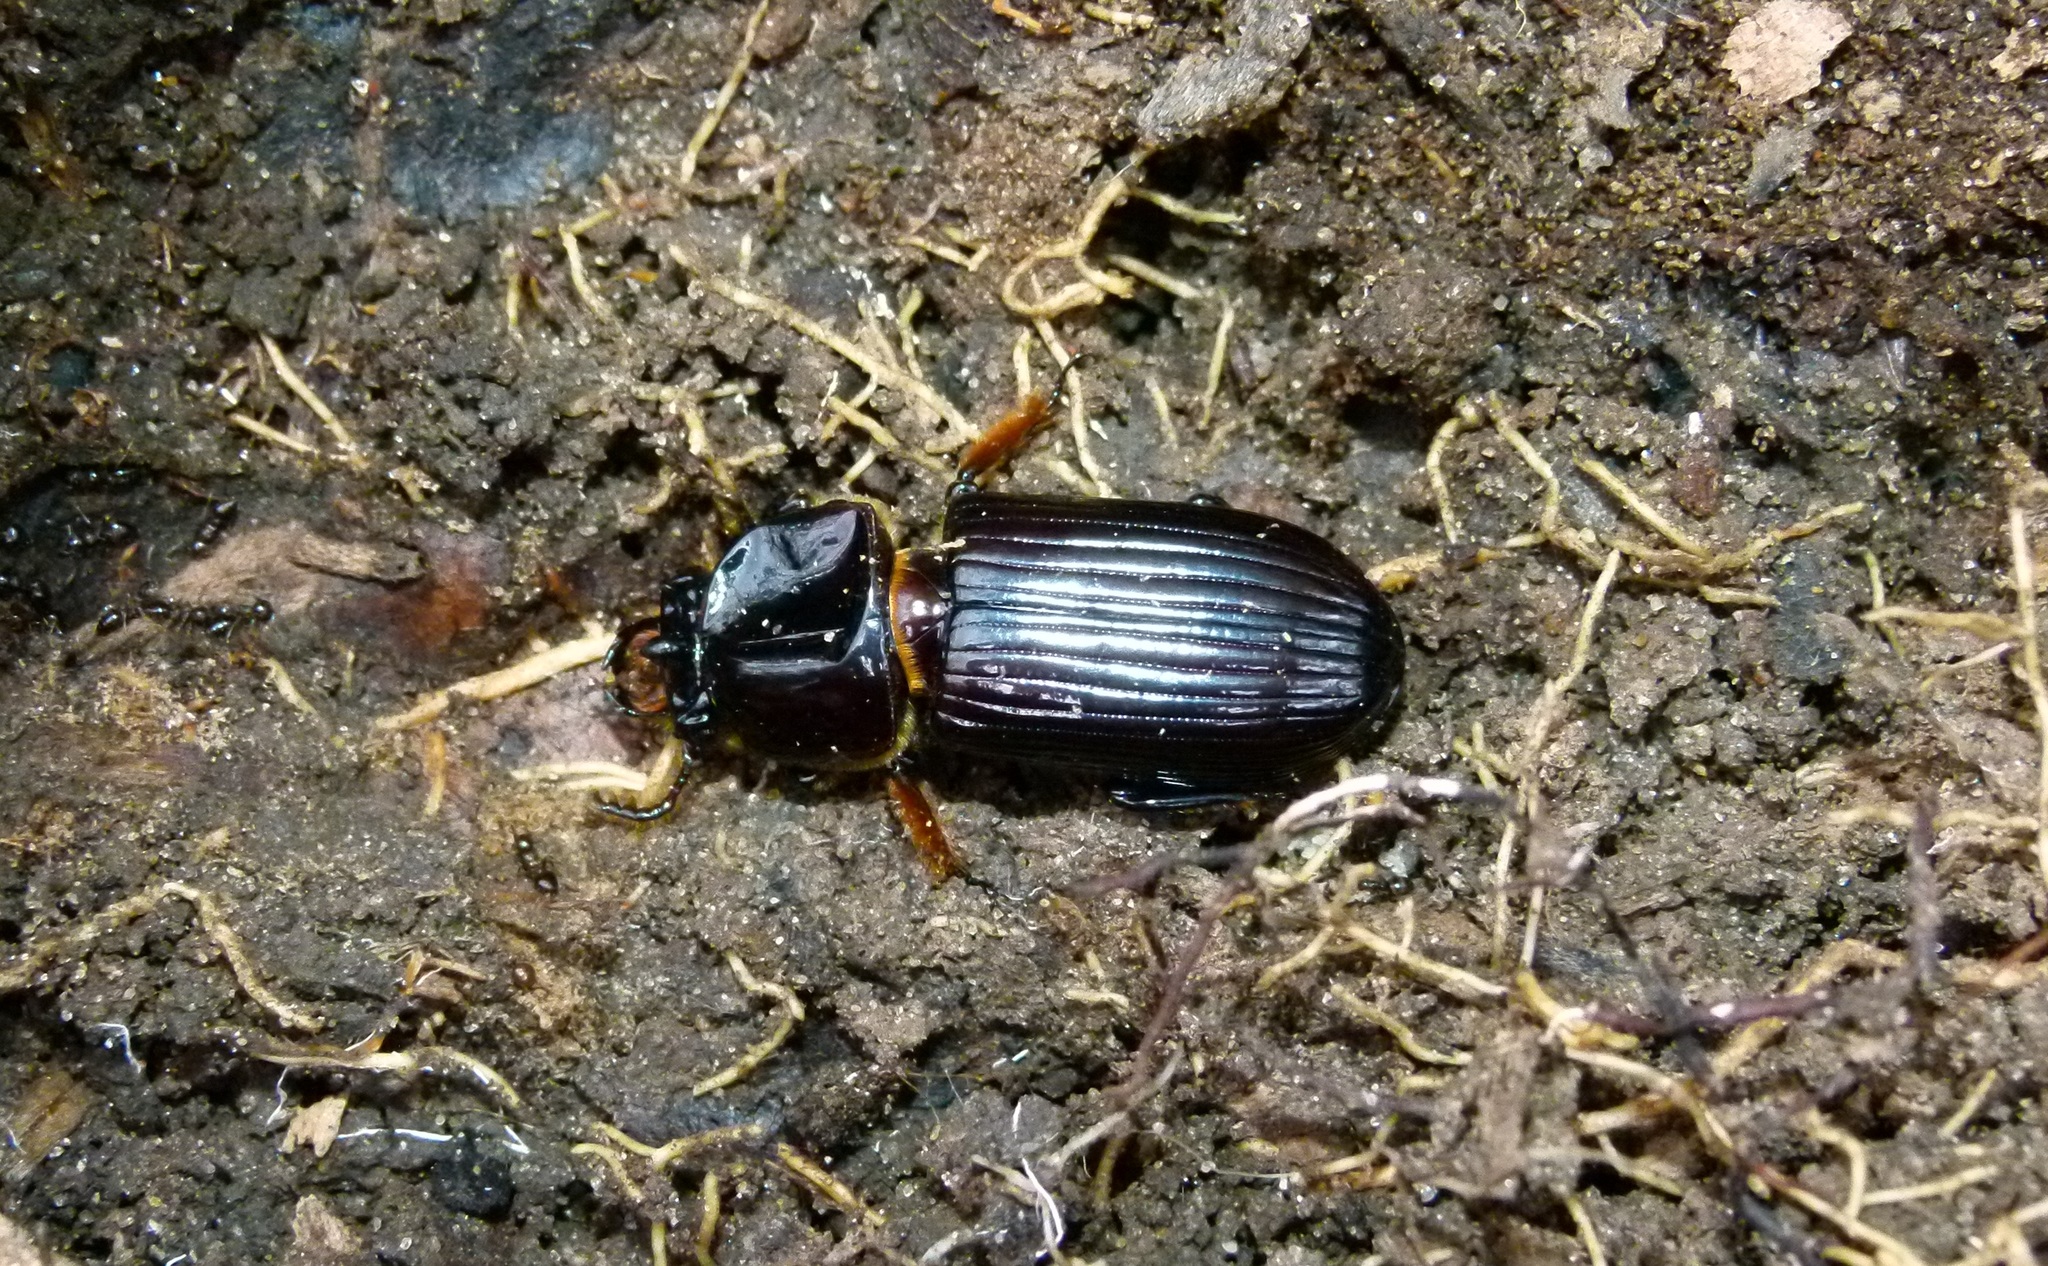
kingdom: Animalia
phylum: Arthropoda
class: Insecta
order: Coleoptera
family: Passalidae
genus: Odontotaenius
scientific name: Odontotaenius disjunctus
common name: Patent leather beetle
